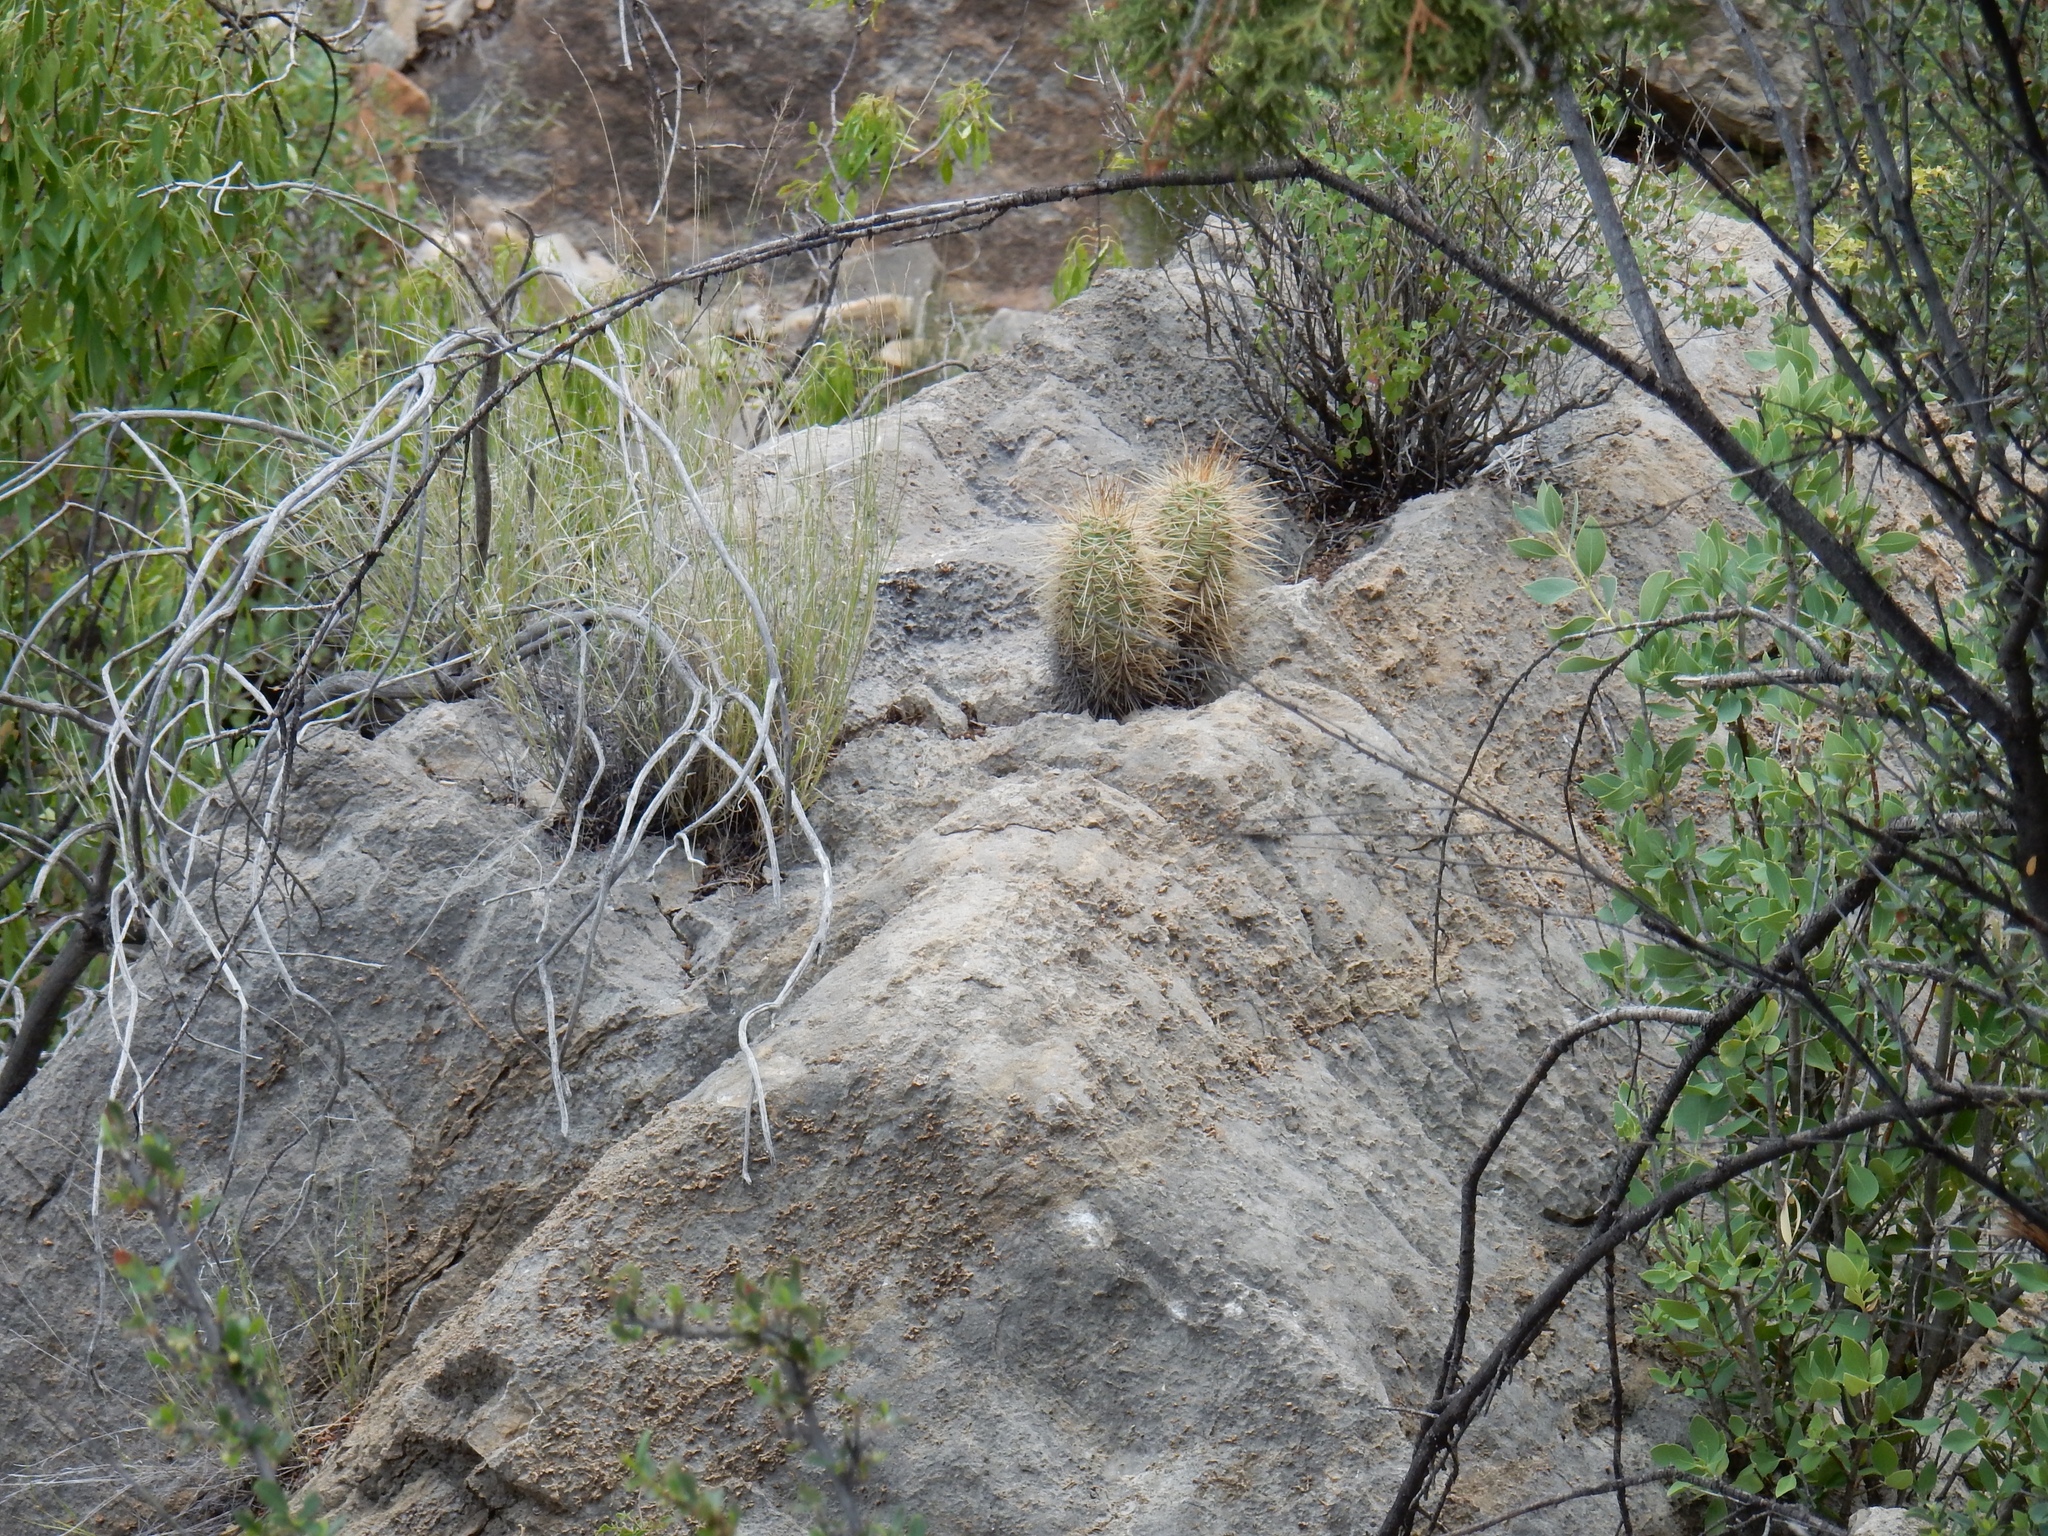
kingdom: Plantae
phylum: Tracheophyta
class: Magnoliopsida
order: Caryophyllales
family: Cactaceae
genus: Echinocereus
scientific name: Echinocereus coccineus
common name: Scarlet hedgehog cactus
